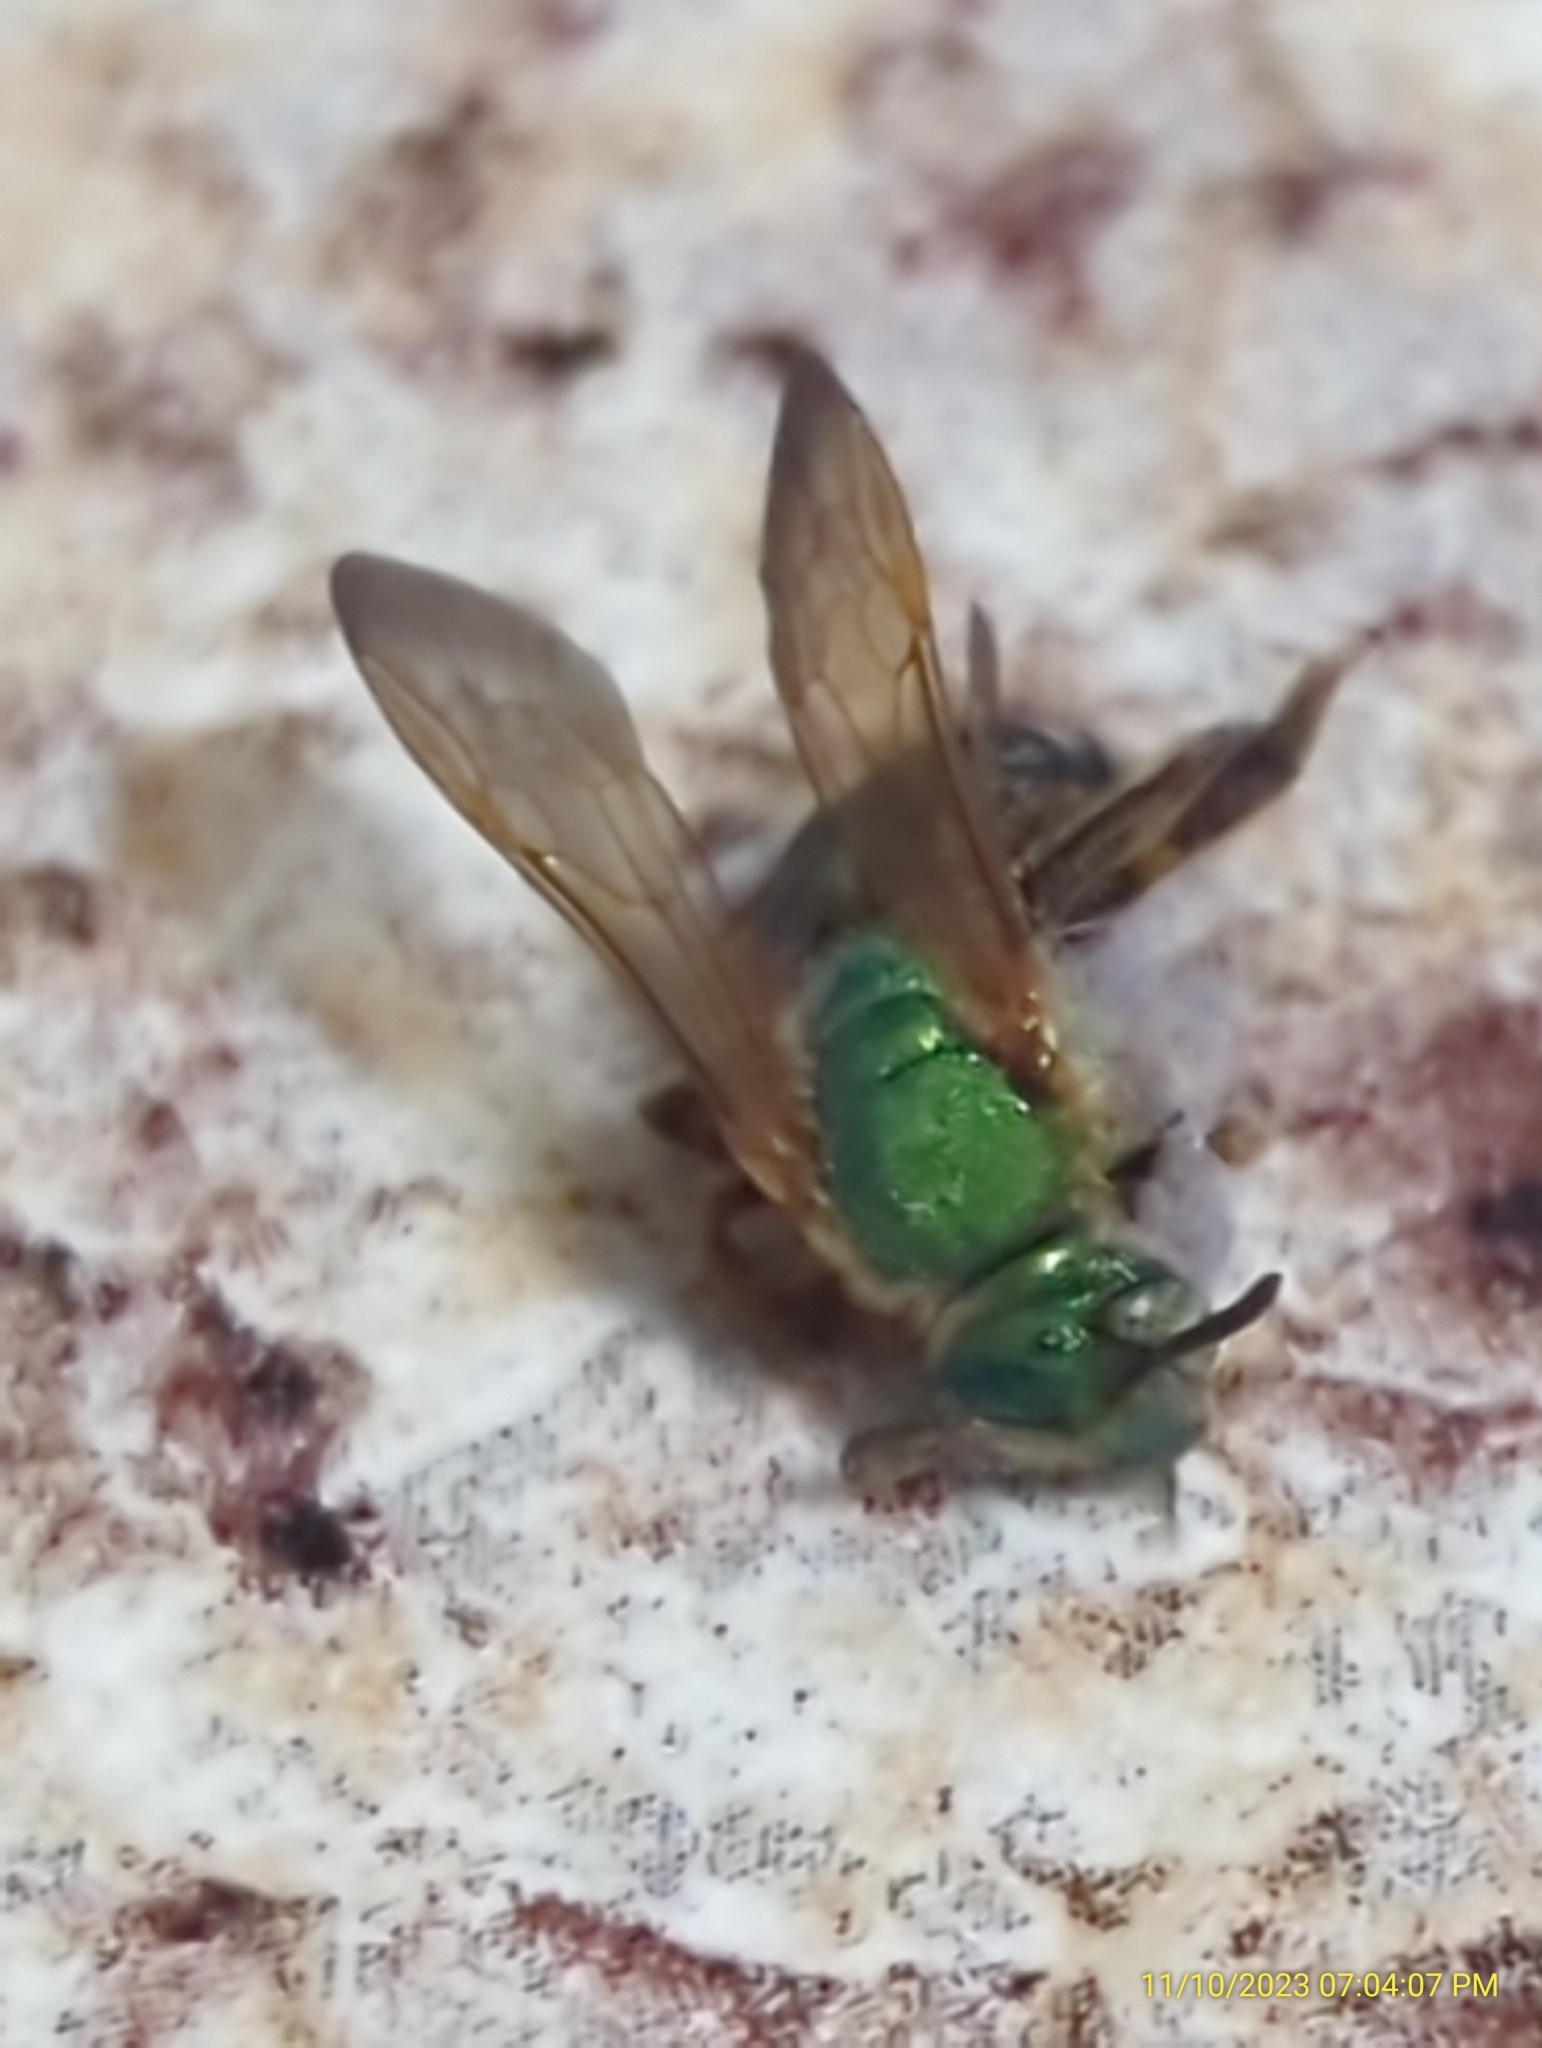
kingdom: Animalia
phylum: Arthropoda
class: Insecta
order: Hymenoptera
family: Halictidae
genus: Agapostemon
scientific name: Agapostemon splendens
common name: Brown-winged striped sweat bee
